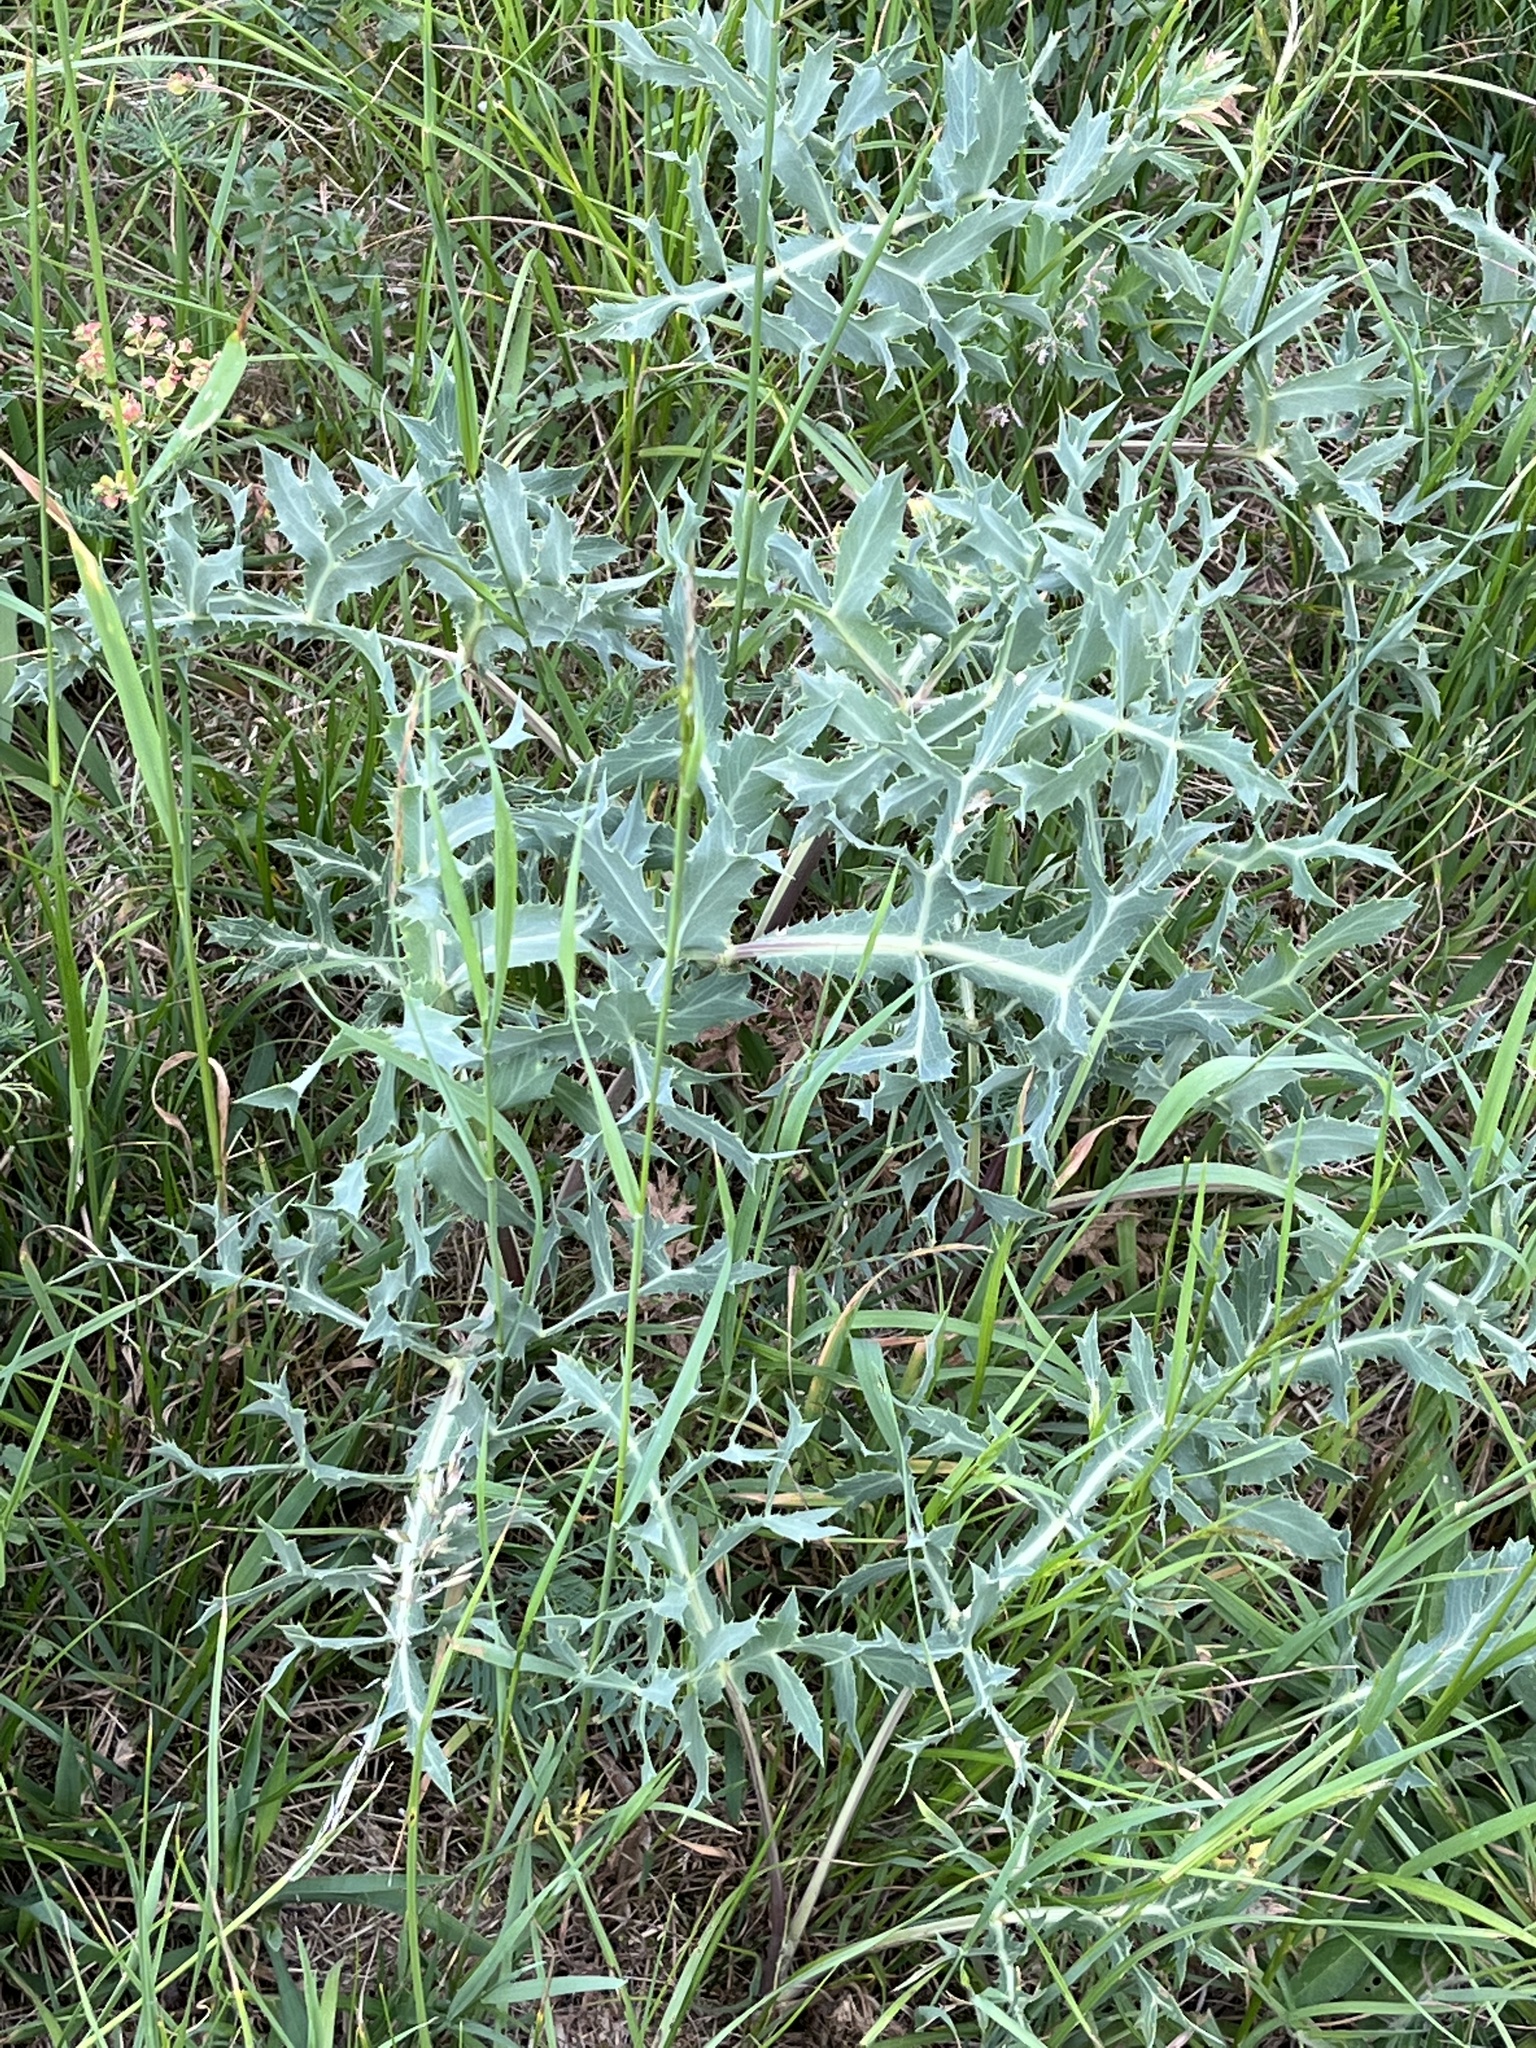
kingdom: Plantae
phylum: Tracheophyta
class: Magnoliopsida
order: Apiales
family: Apiaceae
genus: Eryngium
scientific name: Eryngium campestre
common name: Field eryngo
